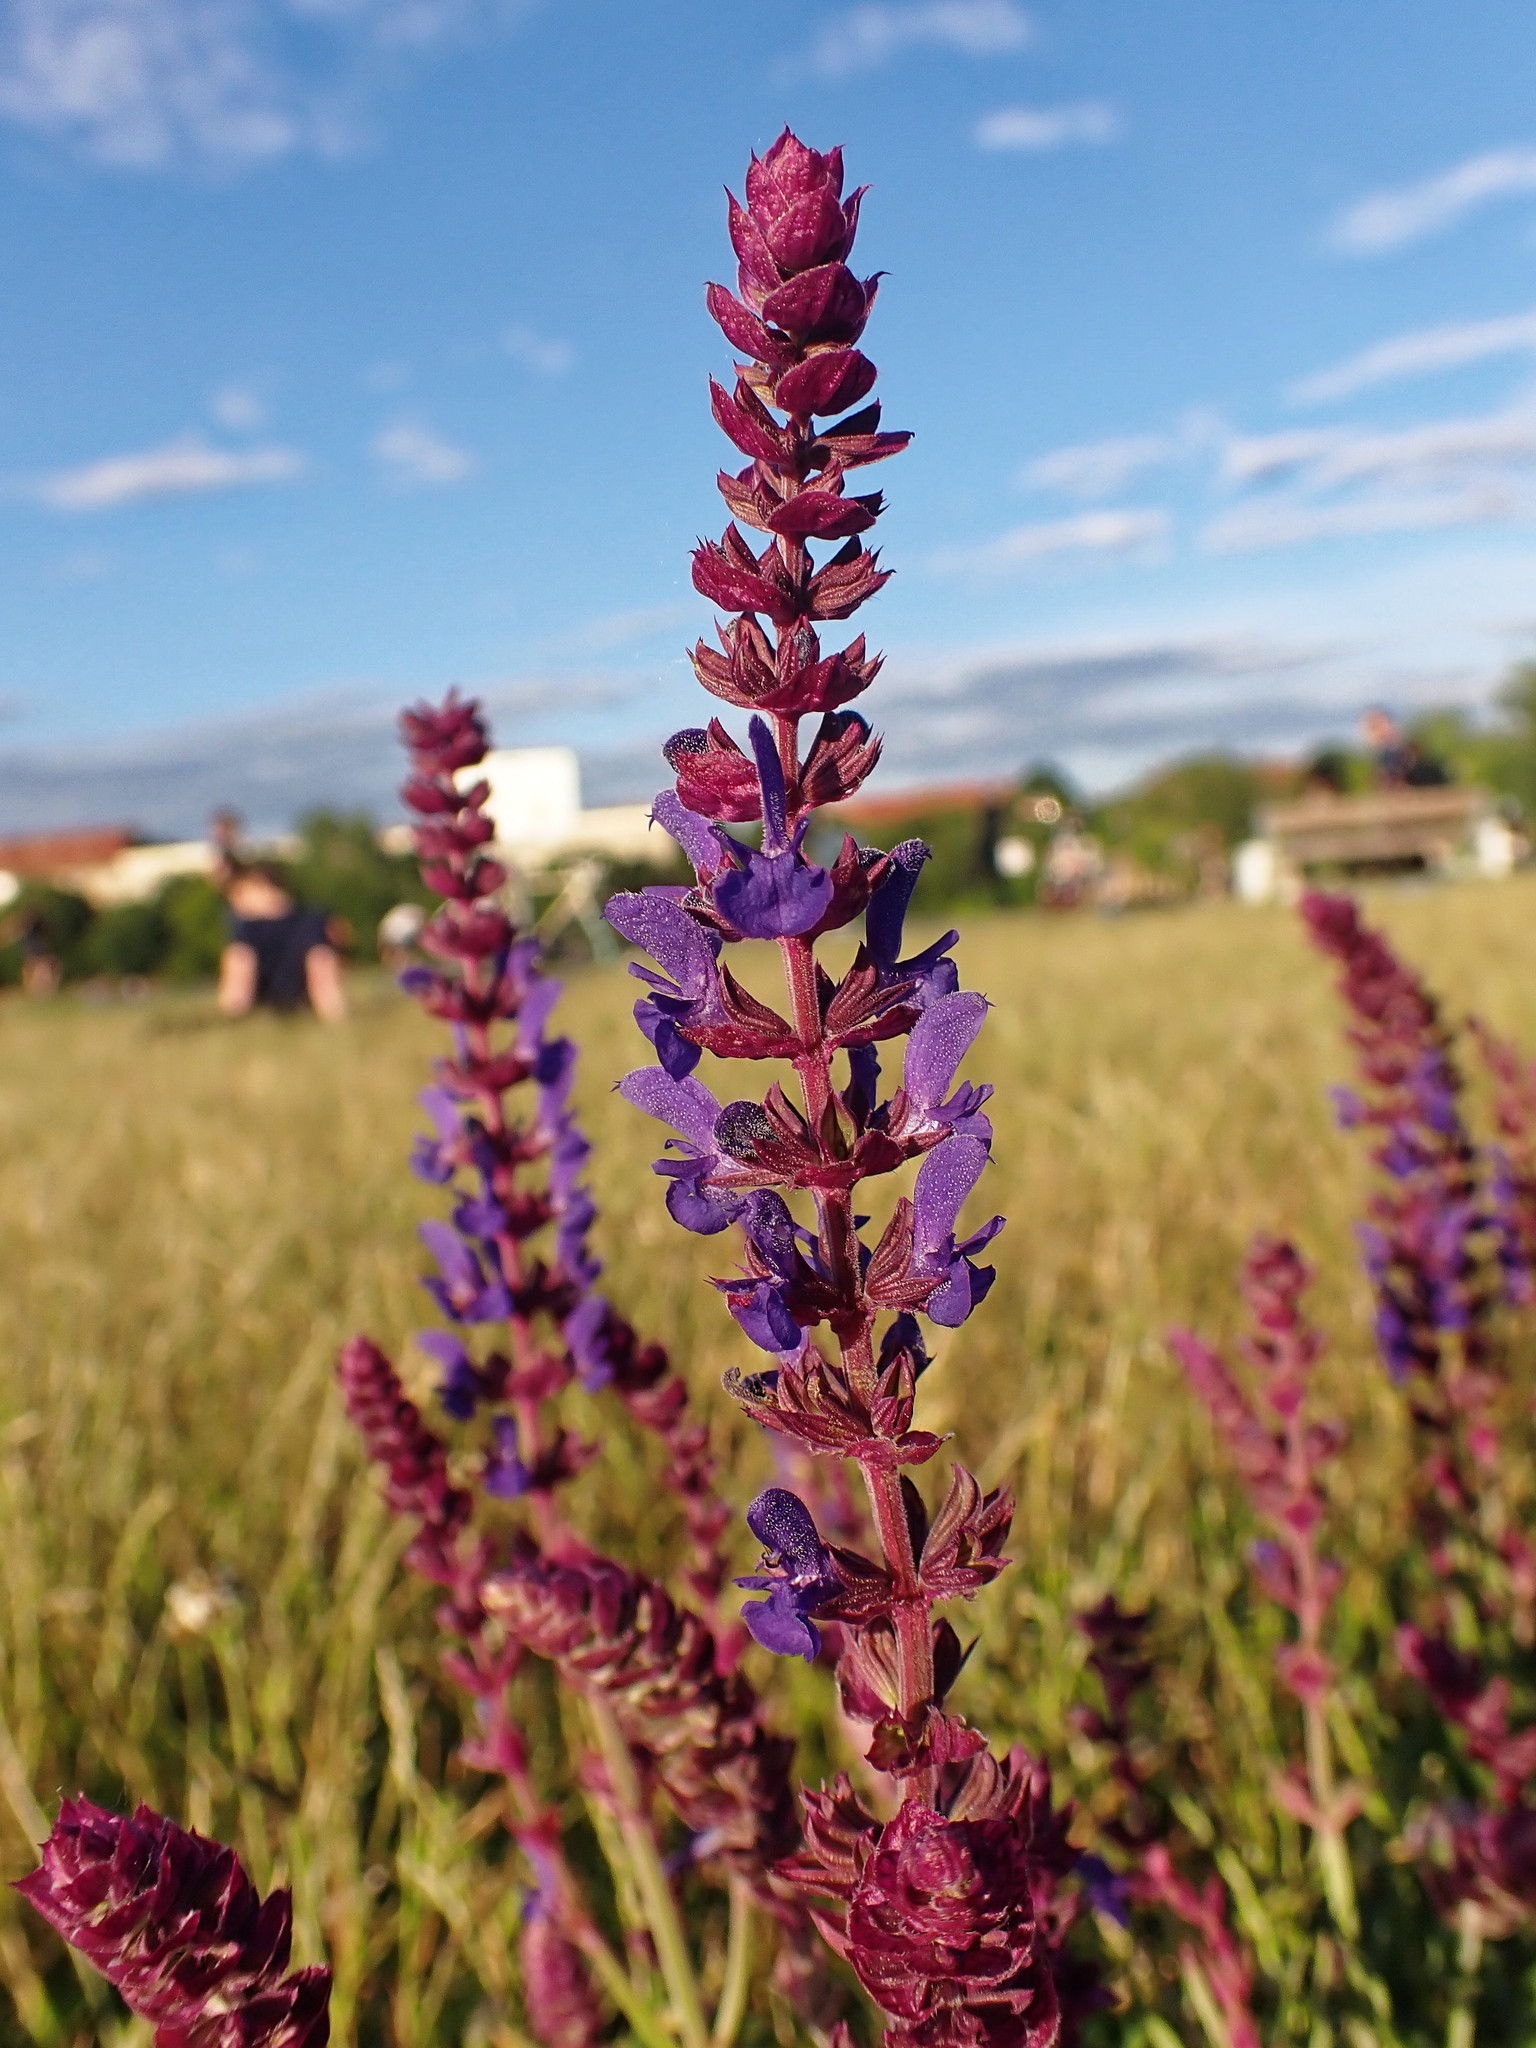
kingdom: Plantae
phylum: Tracheophyta
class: Magnoliopsida
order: Lamiales
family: Lamiaceae
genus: Salvia
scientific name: Salvia nemorosa
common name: Balkan clary
